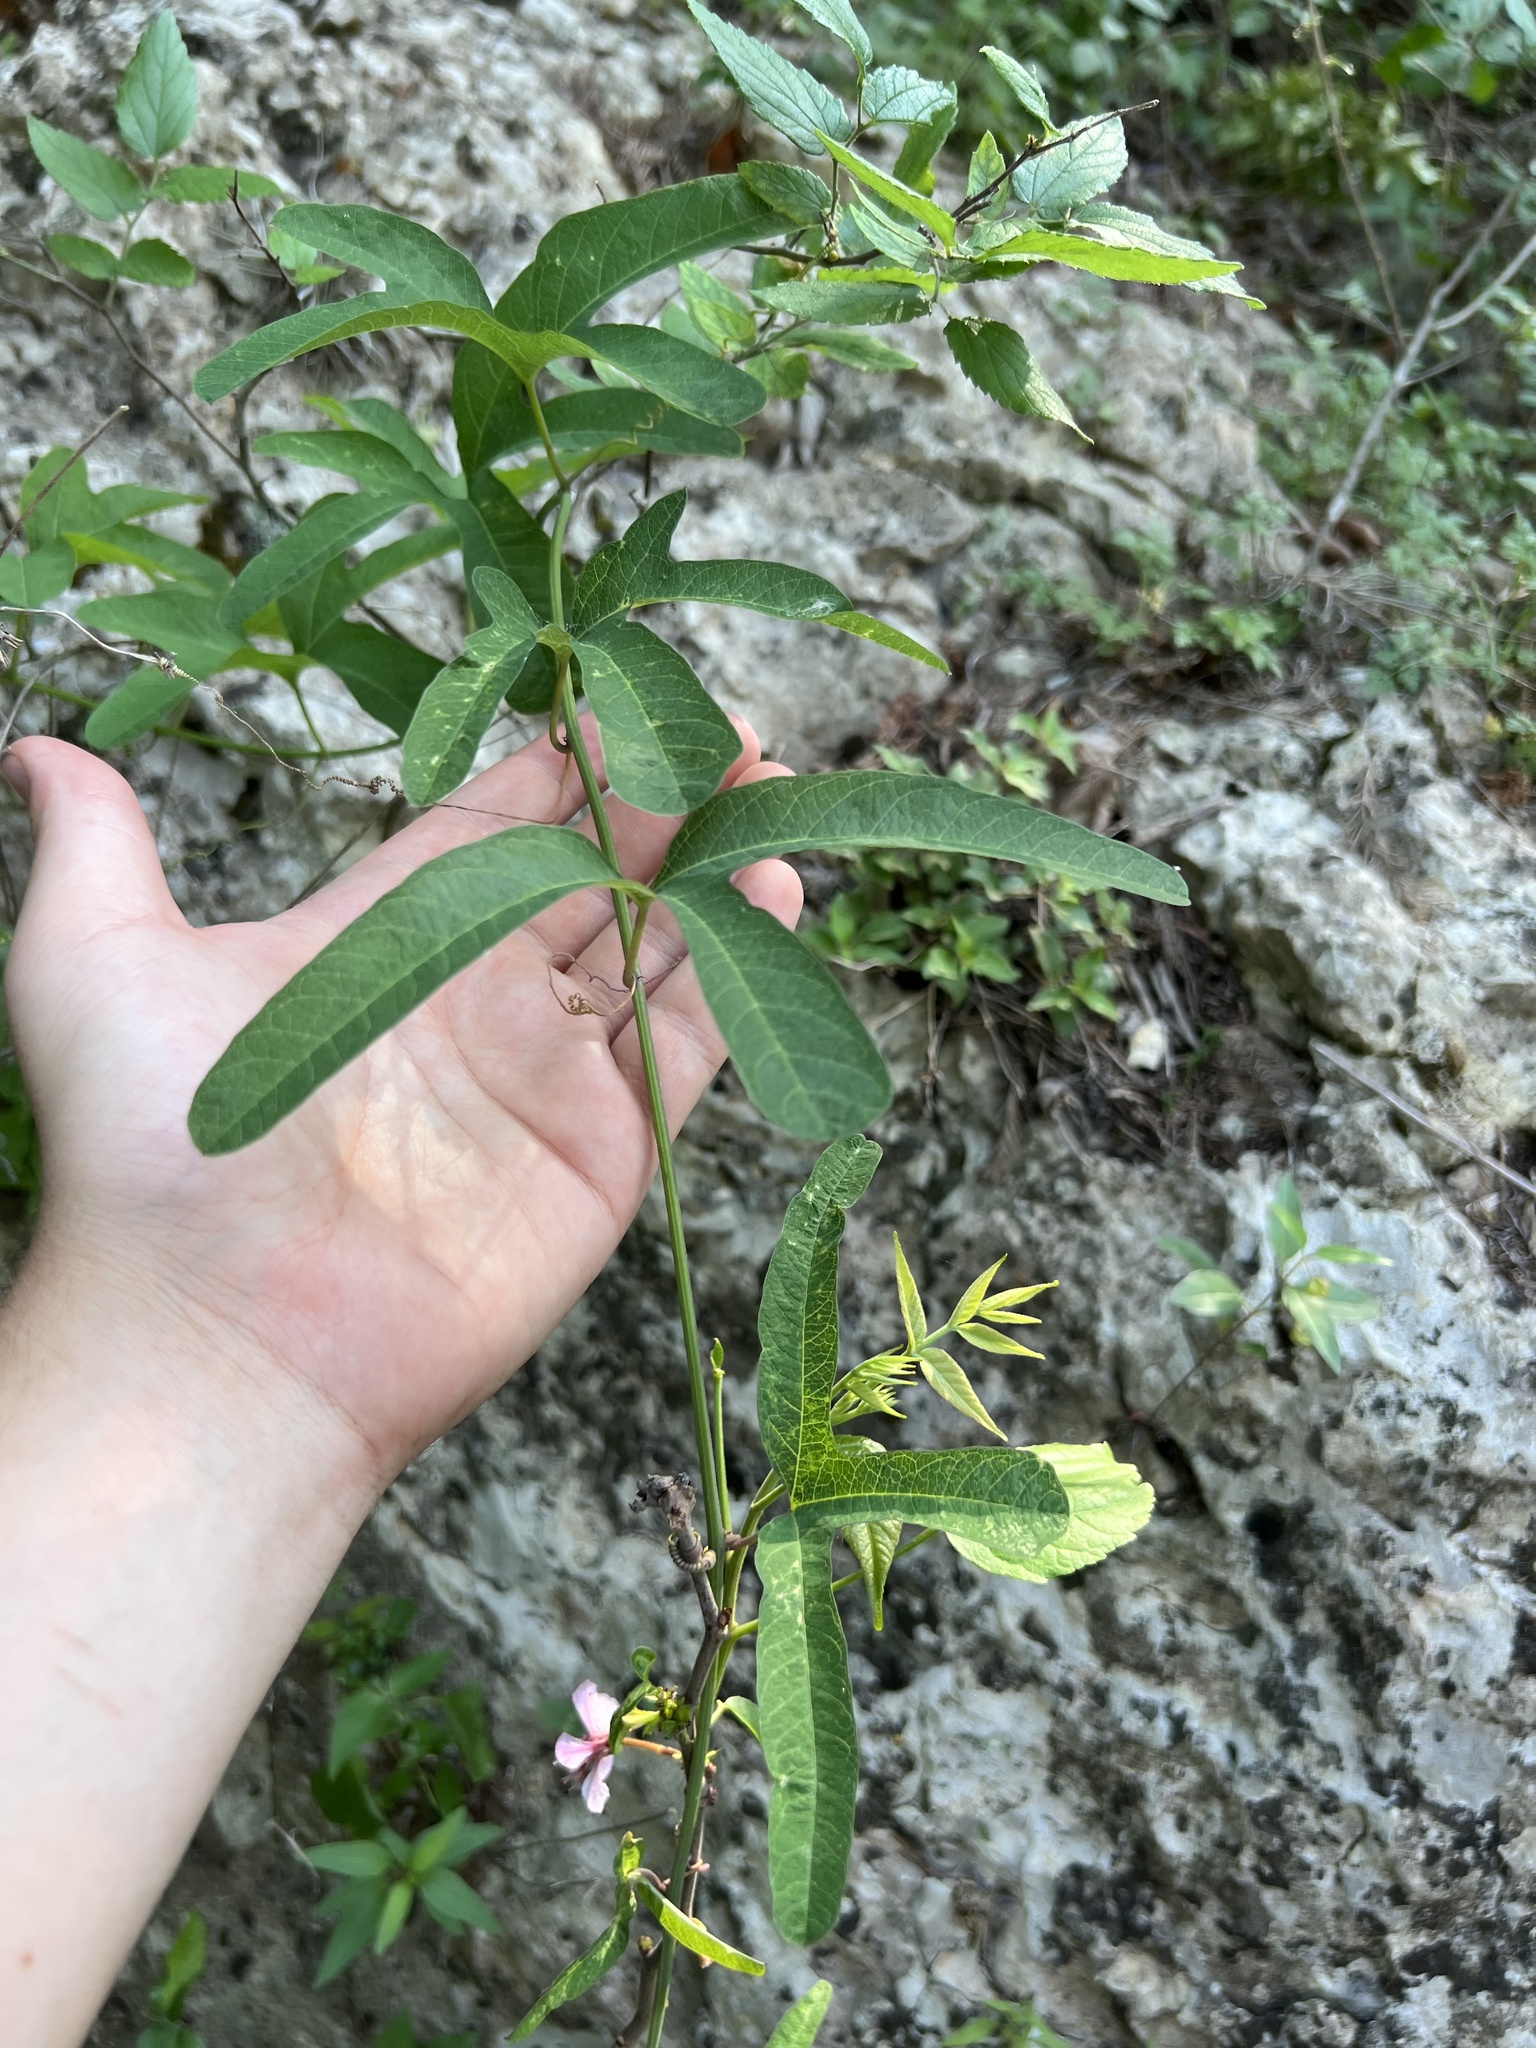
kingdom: Plantae
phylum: Tracheophyta
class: Magnoliopsida
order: Malpighiales
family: Passifloraceae
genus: Passiflora
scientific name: Passiflora affinis
